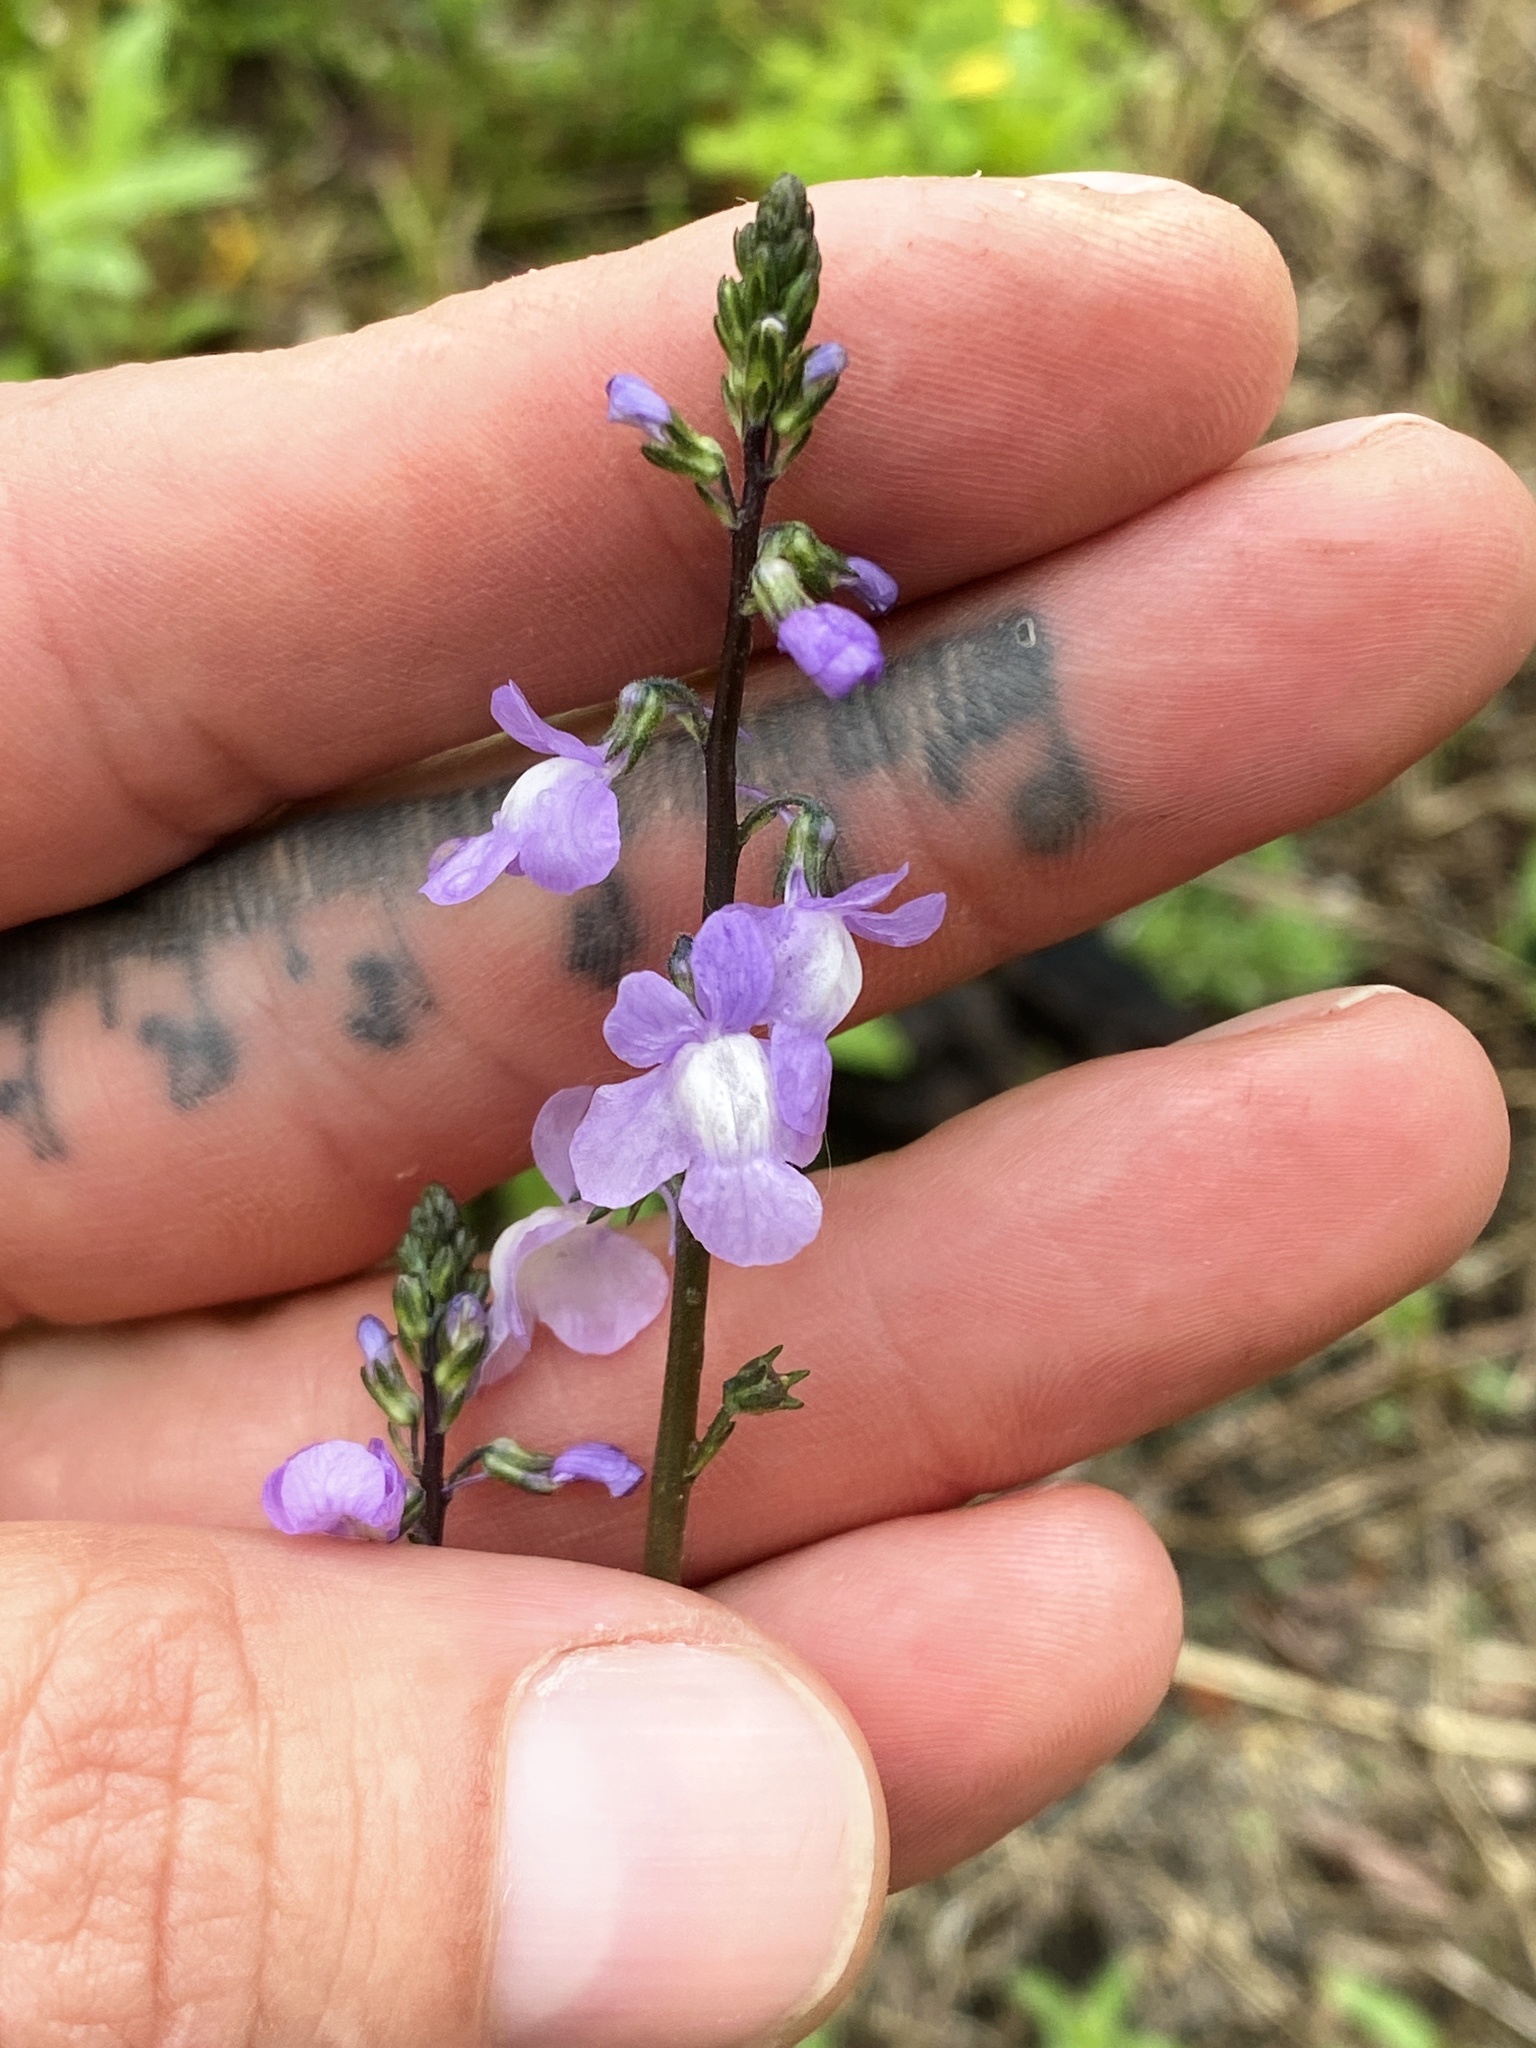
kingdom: Plantae
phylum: Tracheophyta
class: Magnoliopsida
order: Lamiales
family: Plantaginaceae
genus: Nuttallanthus
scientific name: Nuttallanthus canadensis
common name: Blue toadflax
